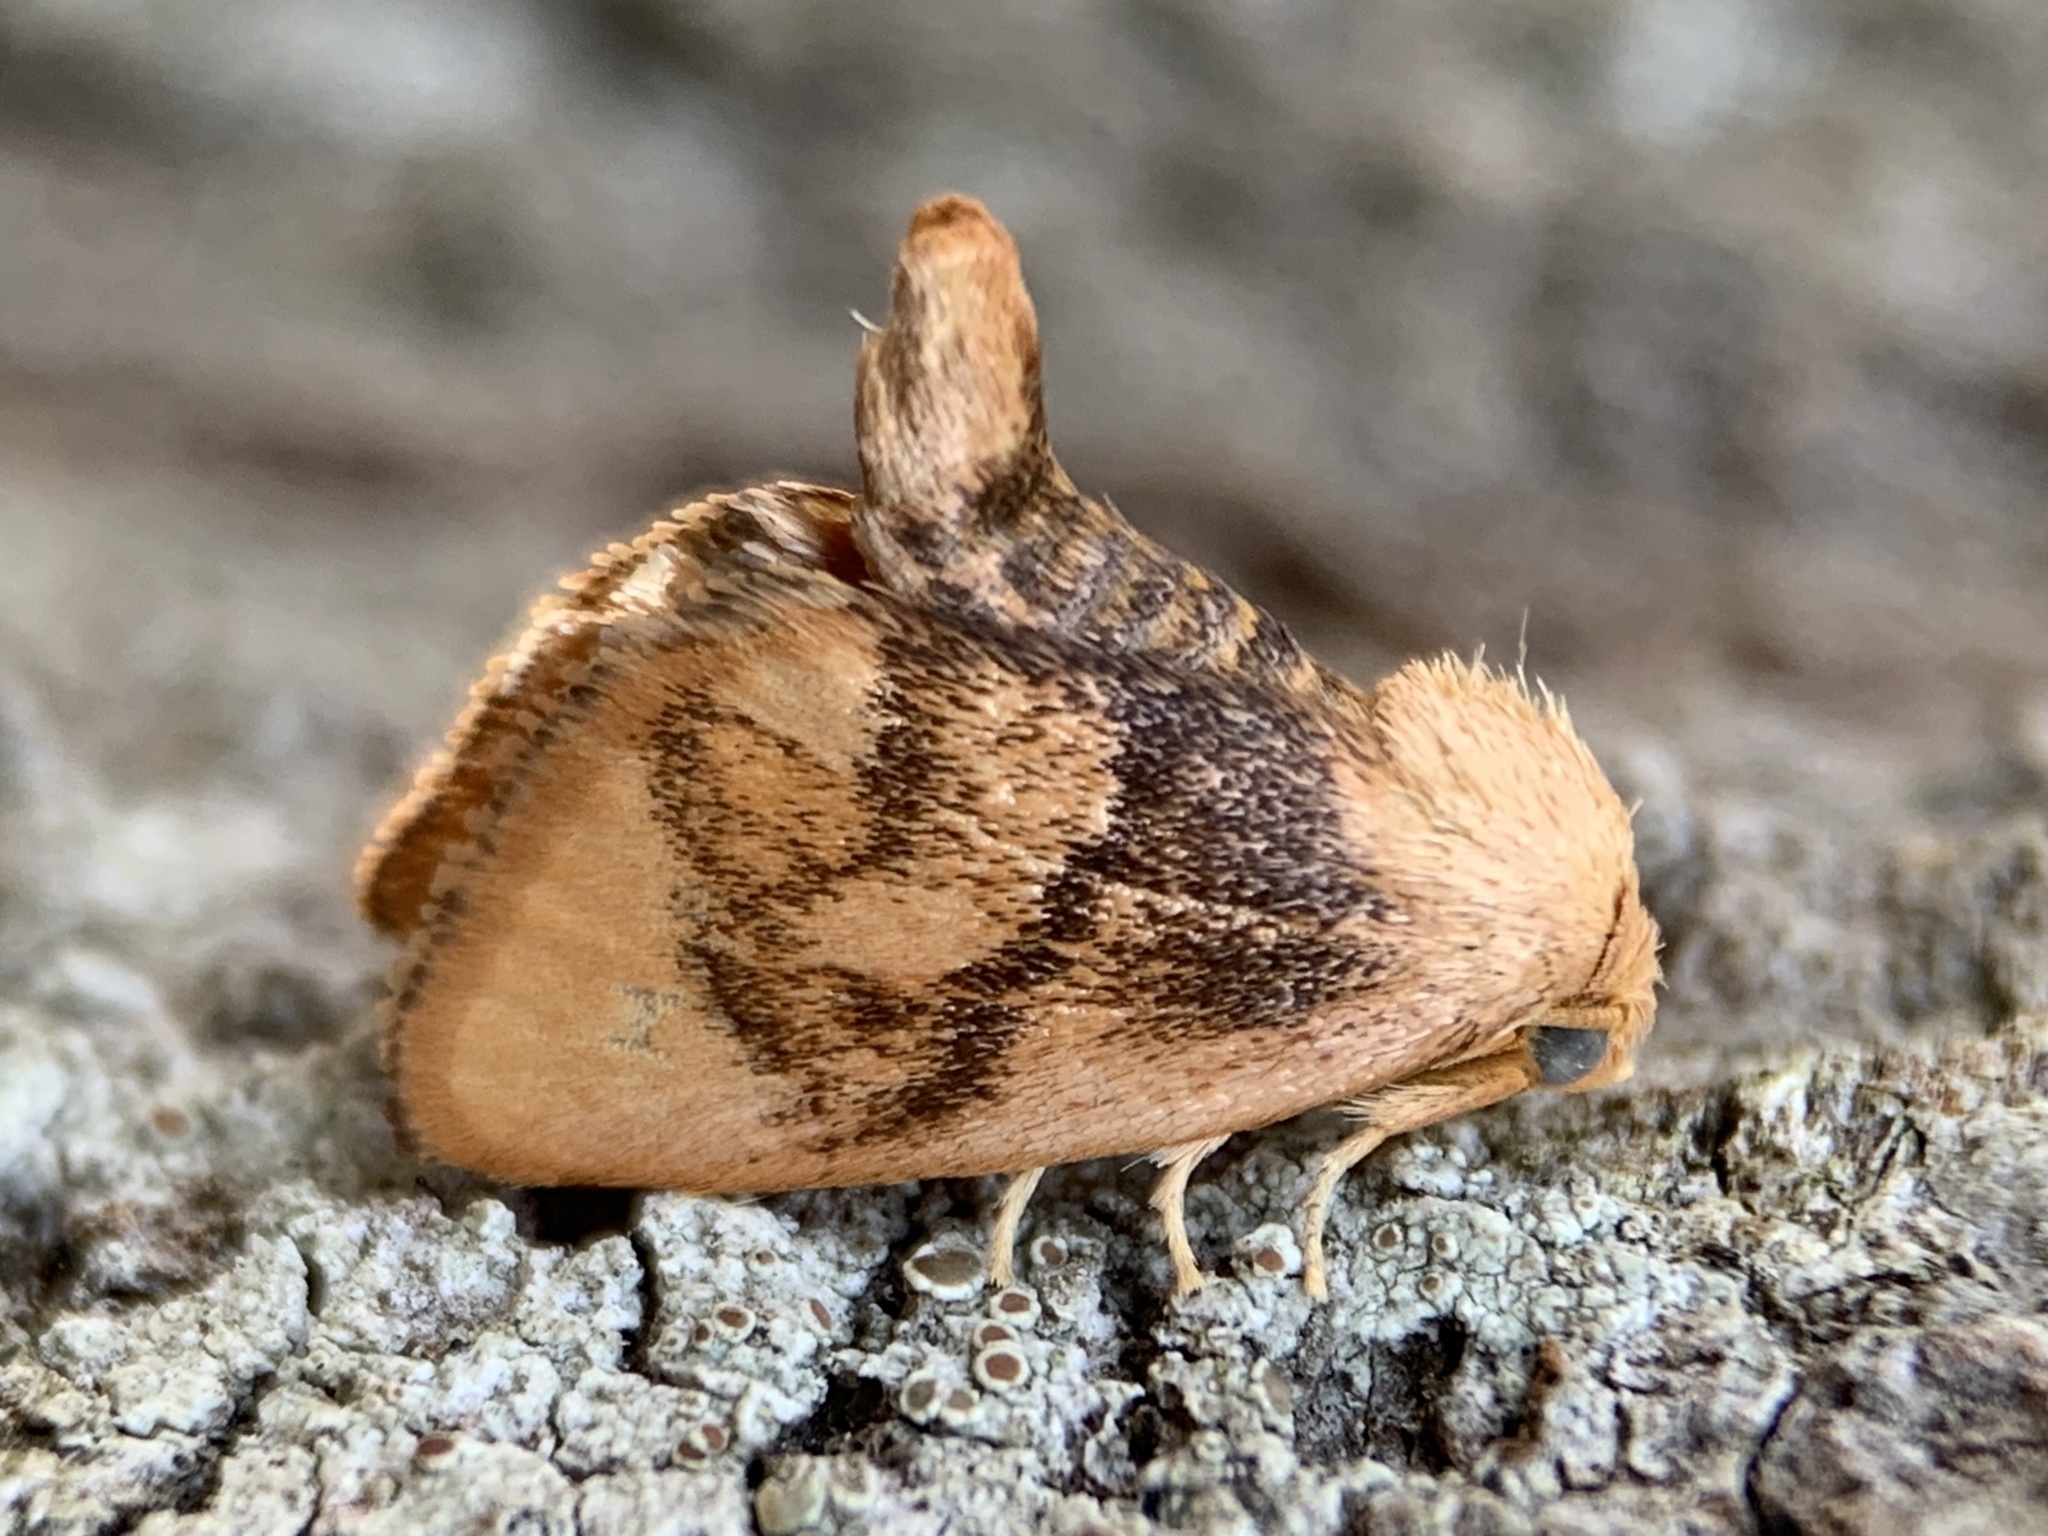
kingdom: Animalia
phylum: Arthropoda
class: Insecta
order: Lepidoptera
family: Limacodidae
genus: Tortricidia
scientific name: Tortricidia flexuosa
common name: Abbreviated button slug moth
